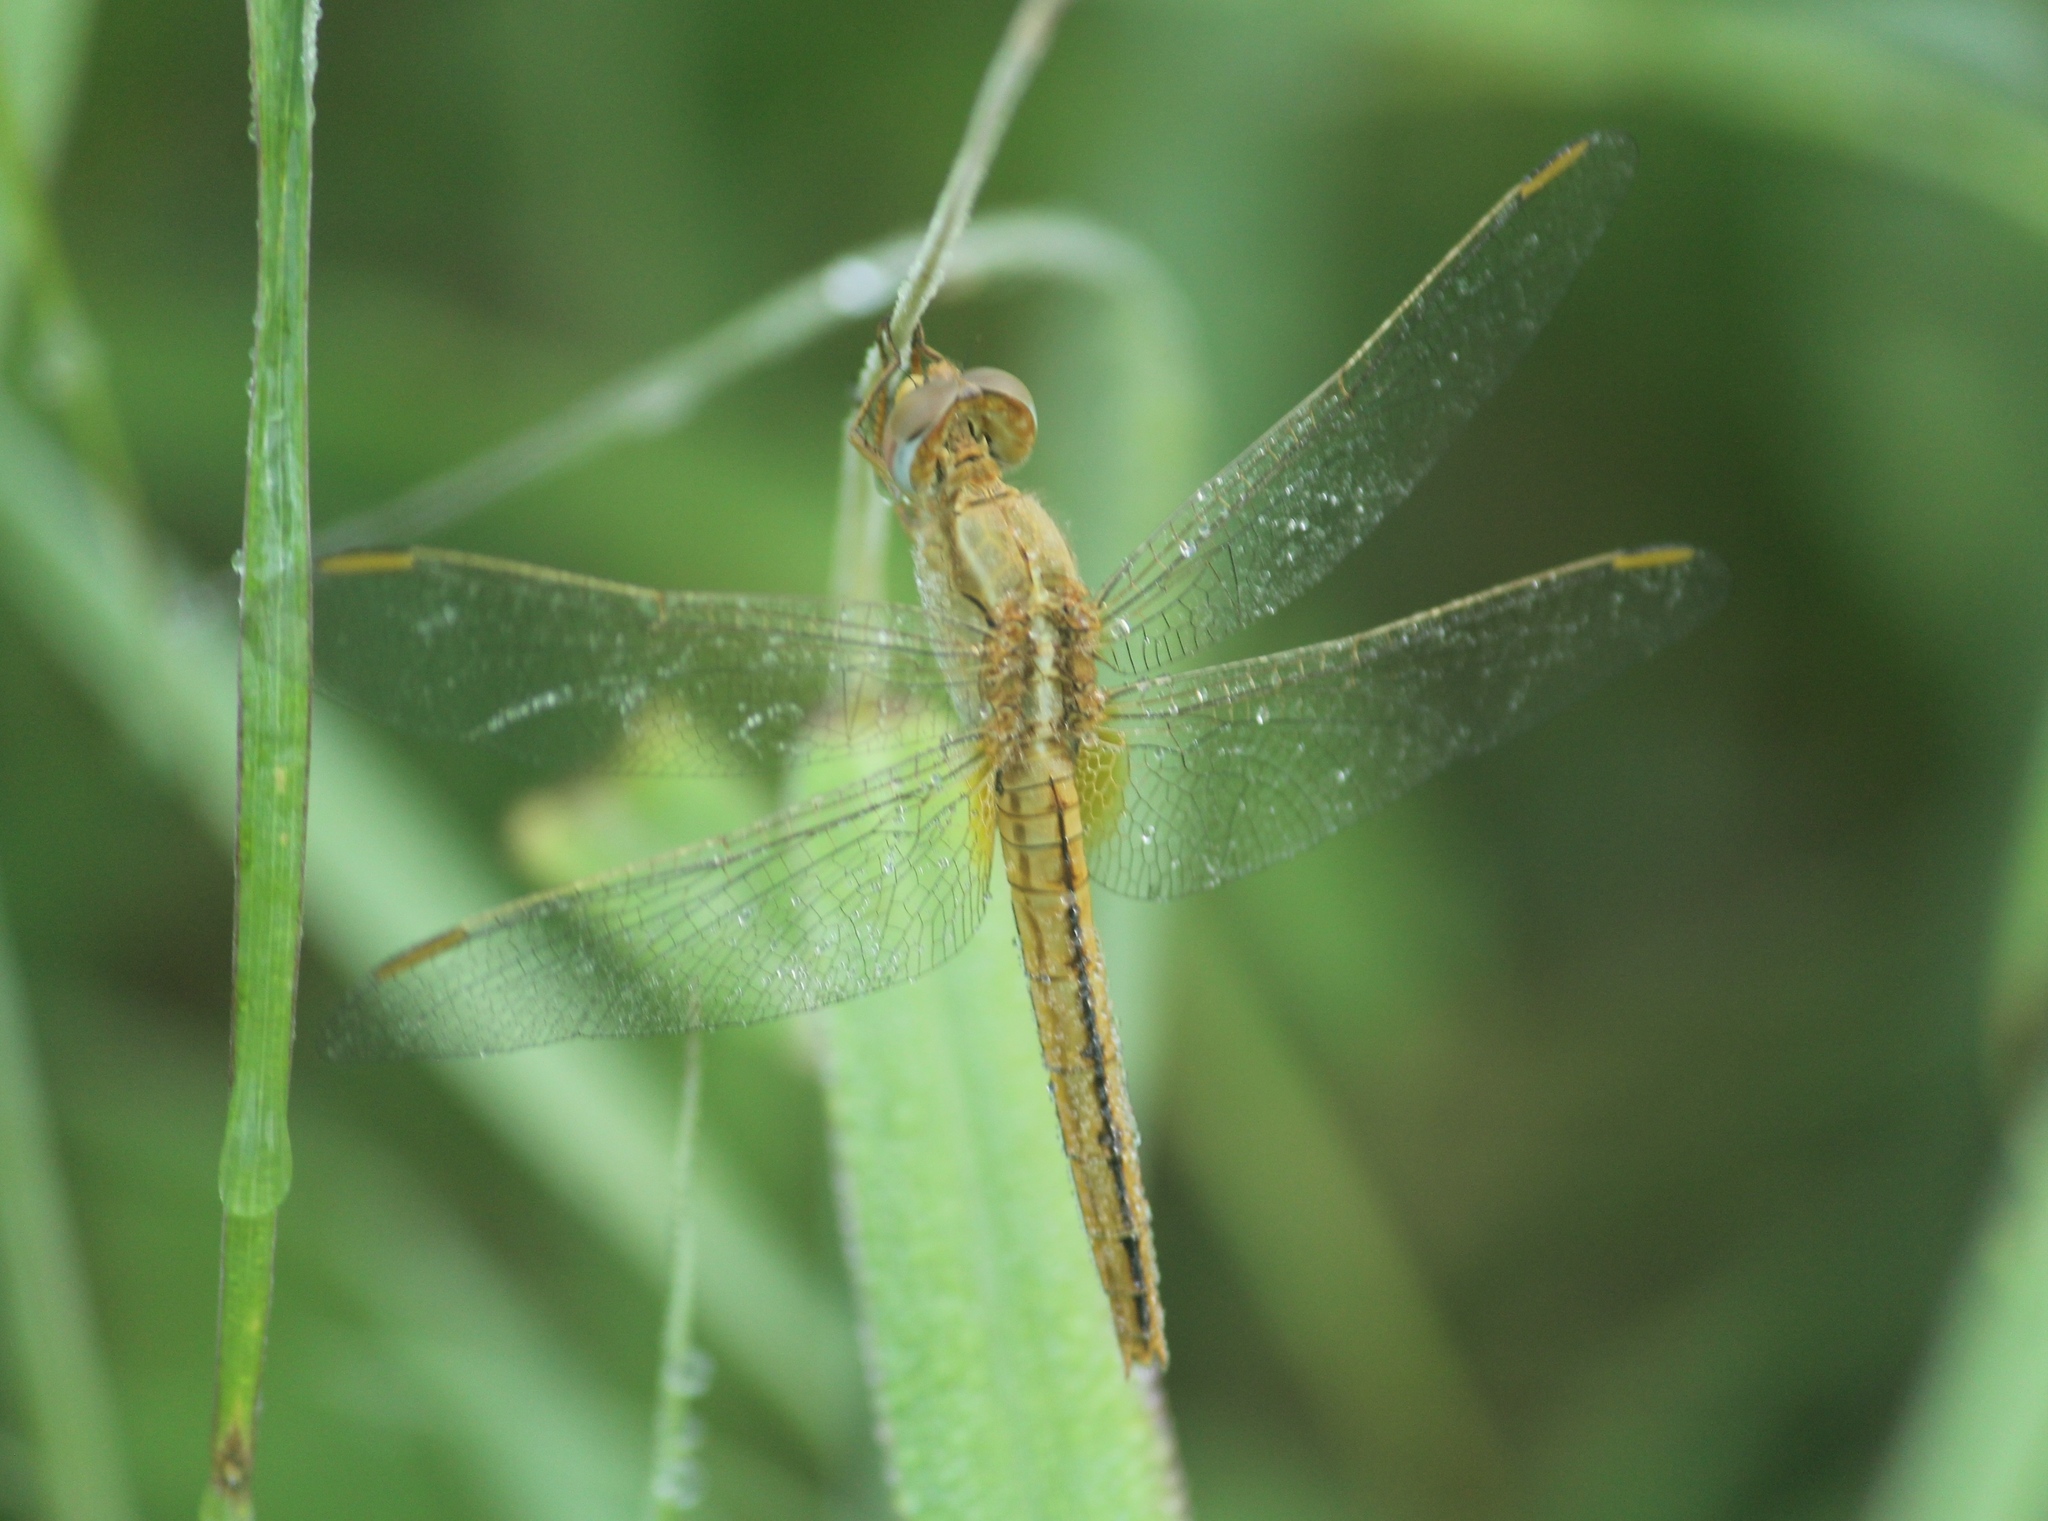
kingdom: Animalia
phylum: Arthropoda
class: Insecta
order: Odonata
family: Libellulidae
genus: Crocothemis
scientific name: Crocothemis servilia
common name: Scarlet skimmer
